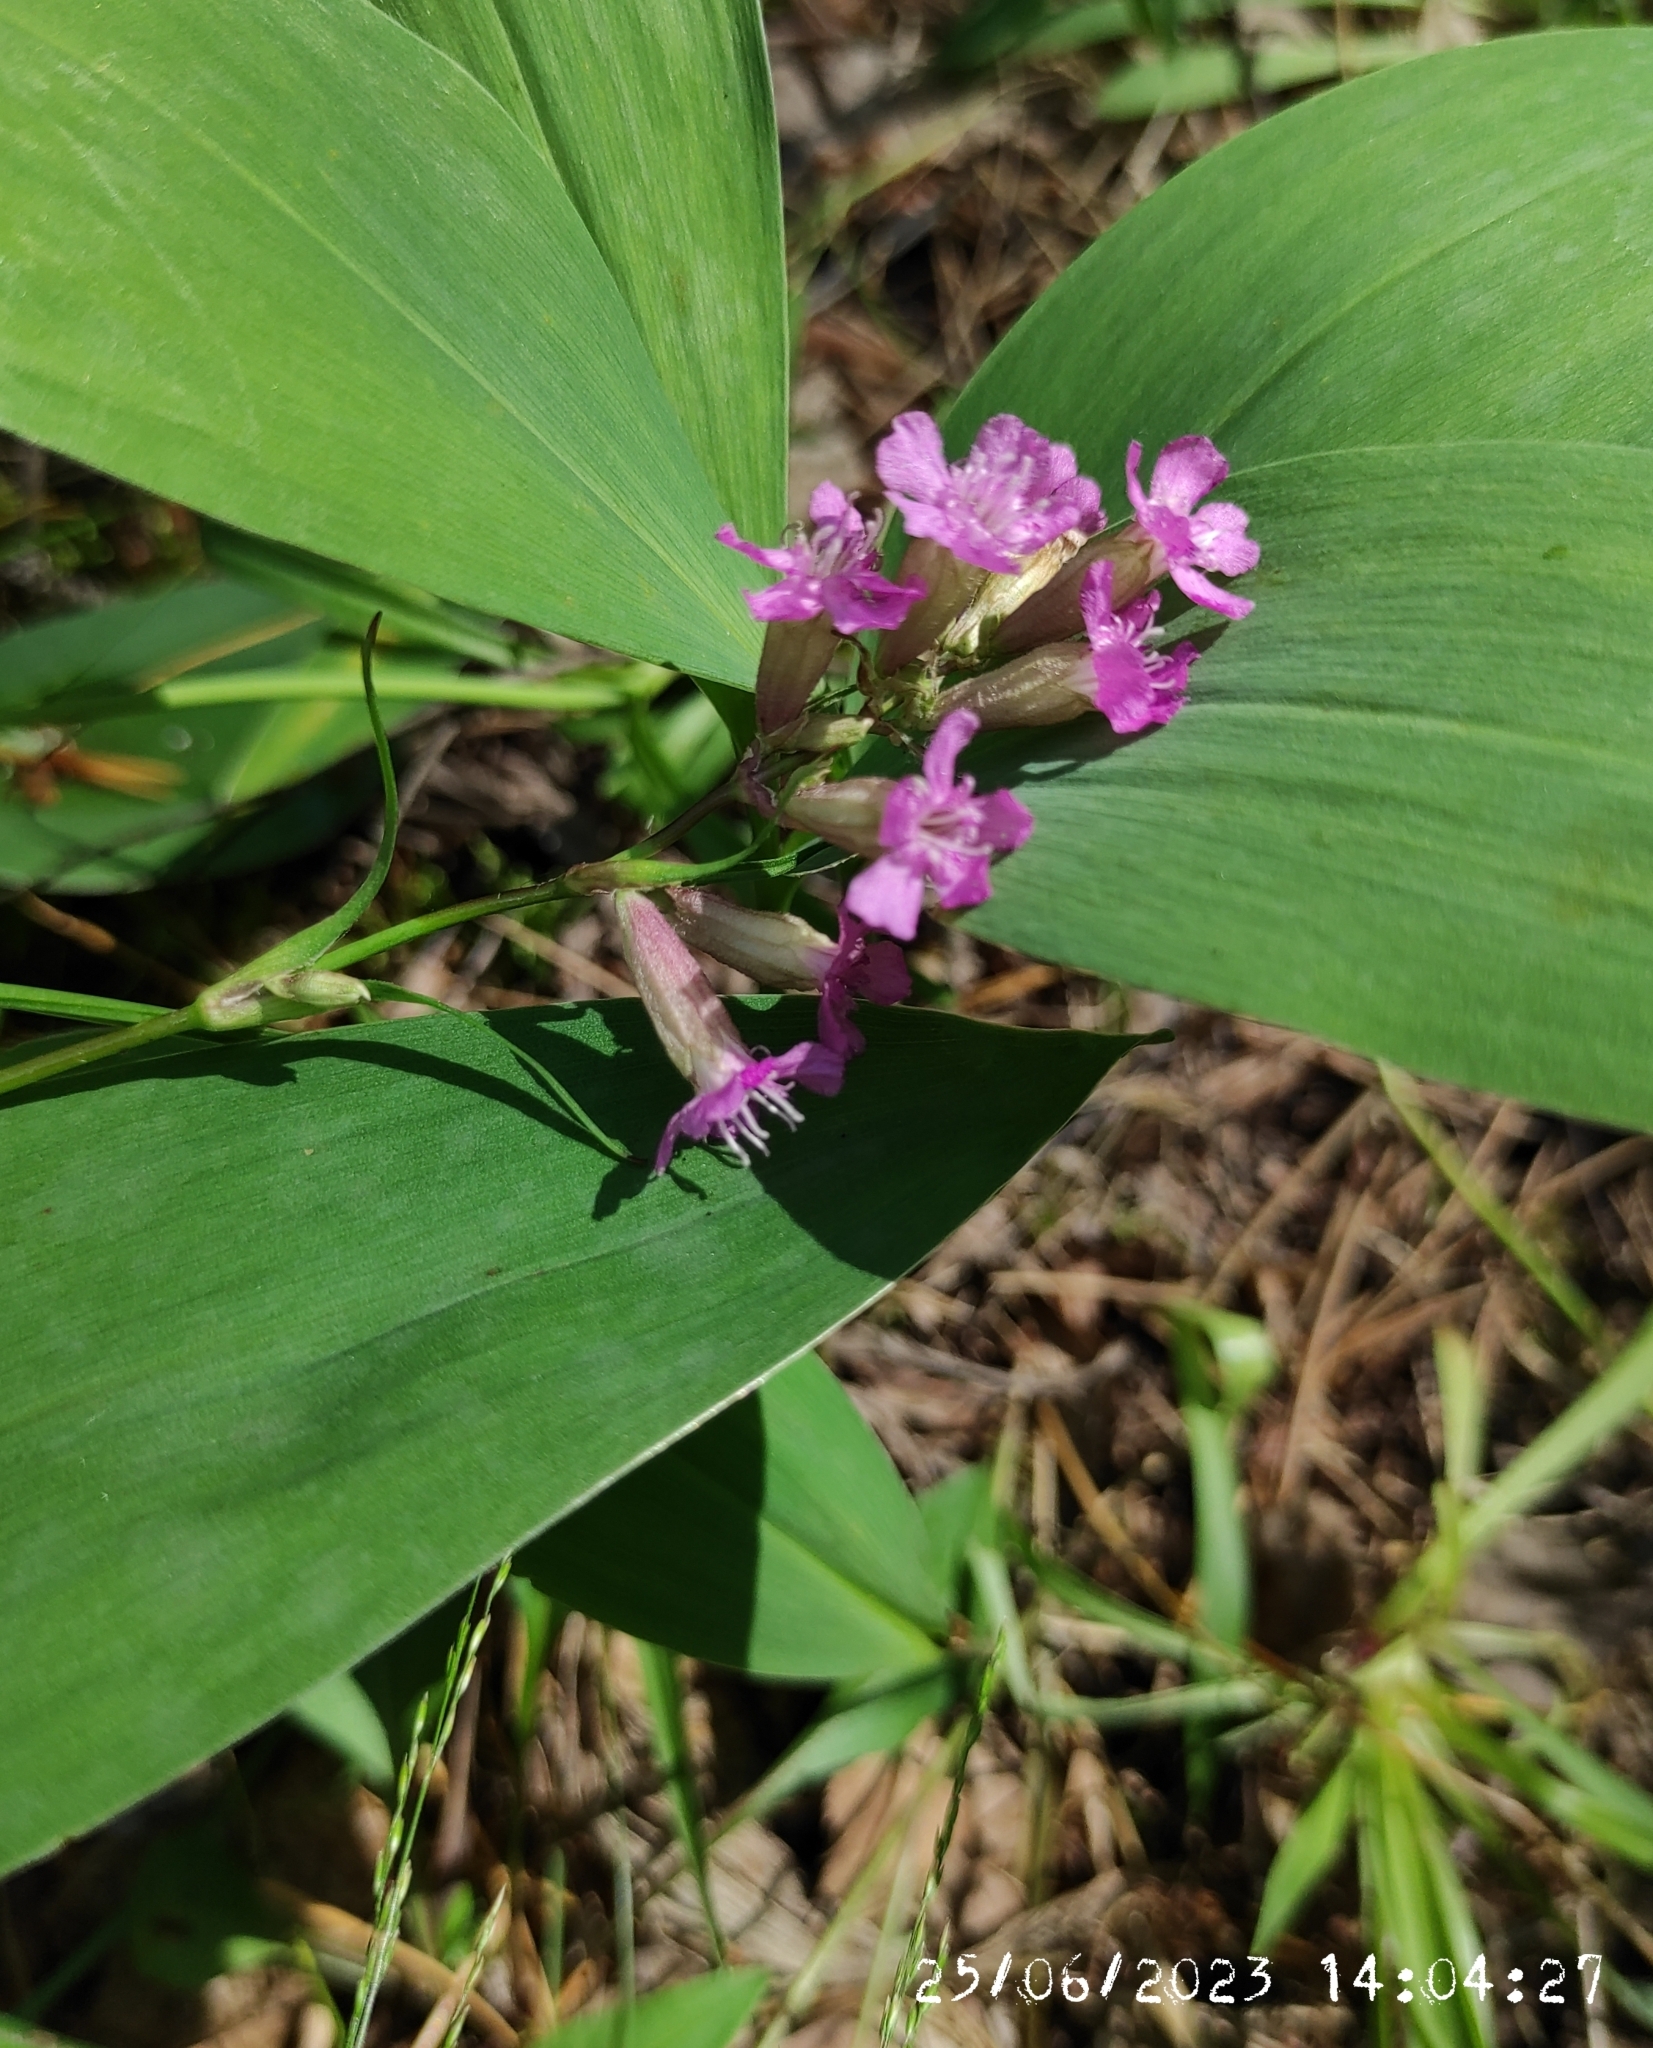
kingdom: Plantae
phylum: Tracheophyta
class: Magnoliopsida
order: Caryophyllales
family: Caryophyllaceae
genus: Viscaria
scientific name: Viscaria vulgaris
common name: Clammy campion
